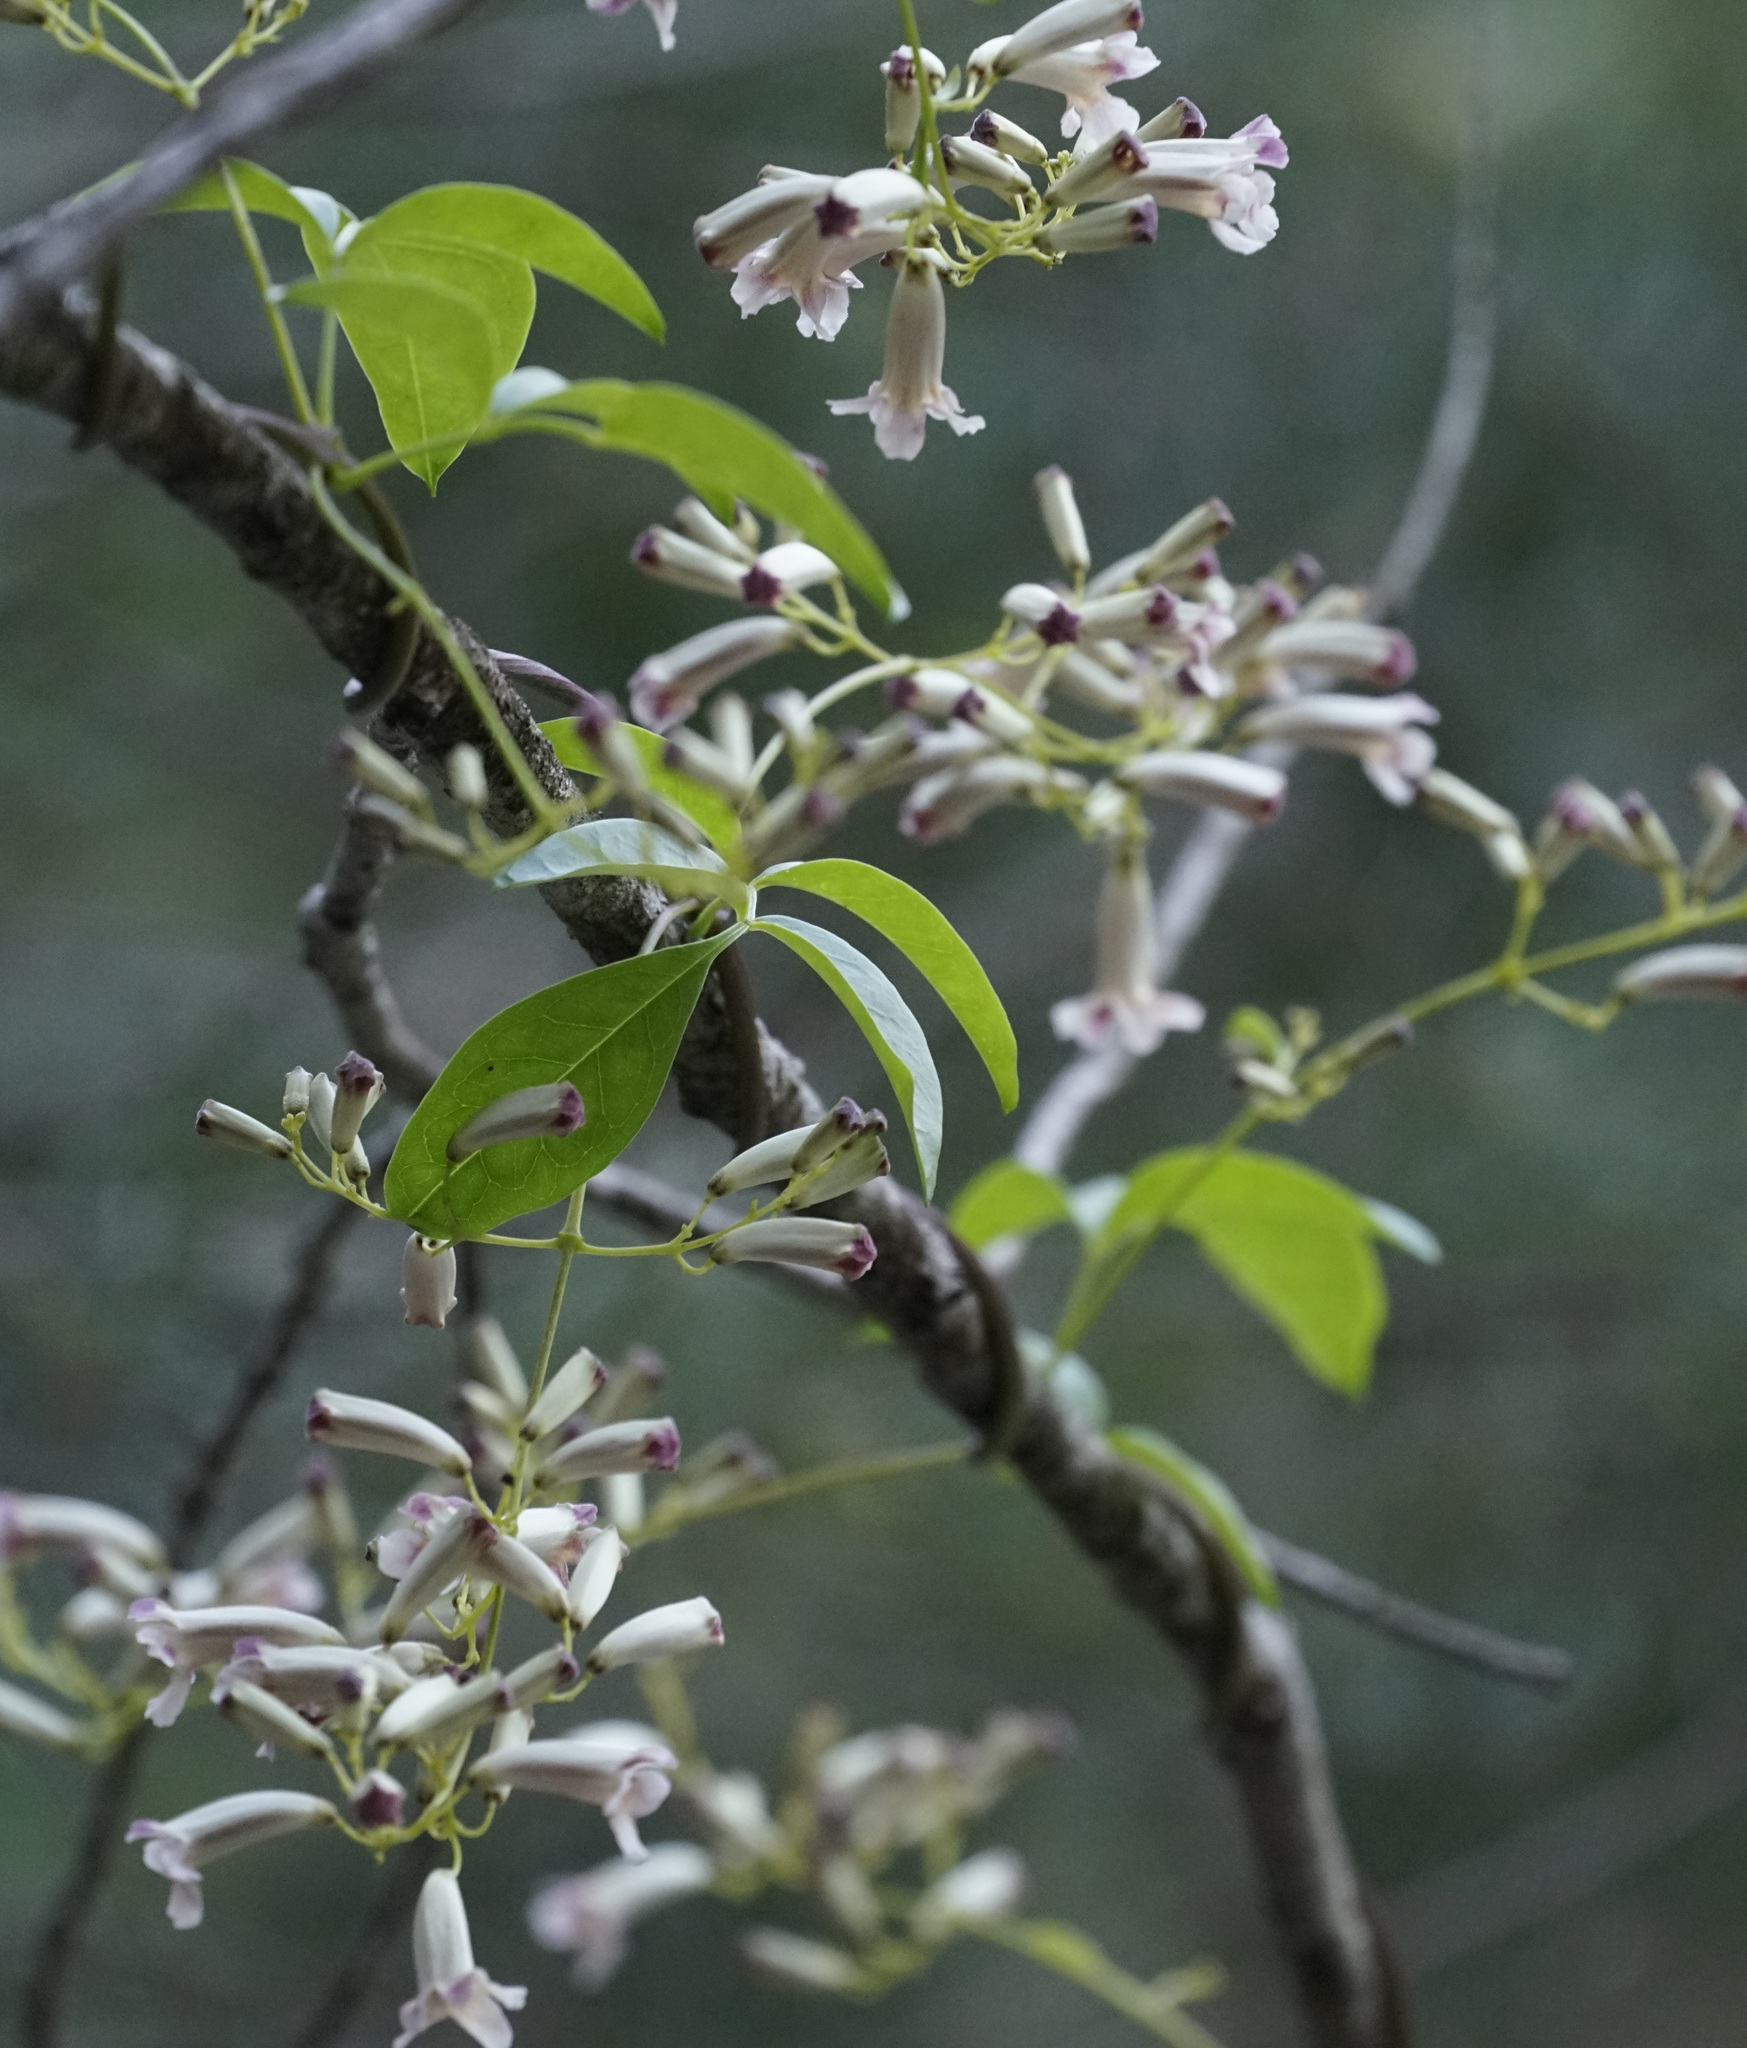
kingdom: Plantae
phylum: Tracheophyta
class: Magnoliopsida
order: Lamiales
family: Bignoniaceae
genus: Pandorea
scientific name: Pandorea pandorana
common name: Wonga-wonga-vine
